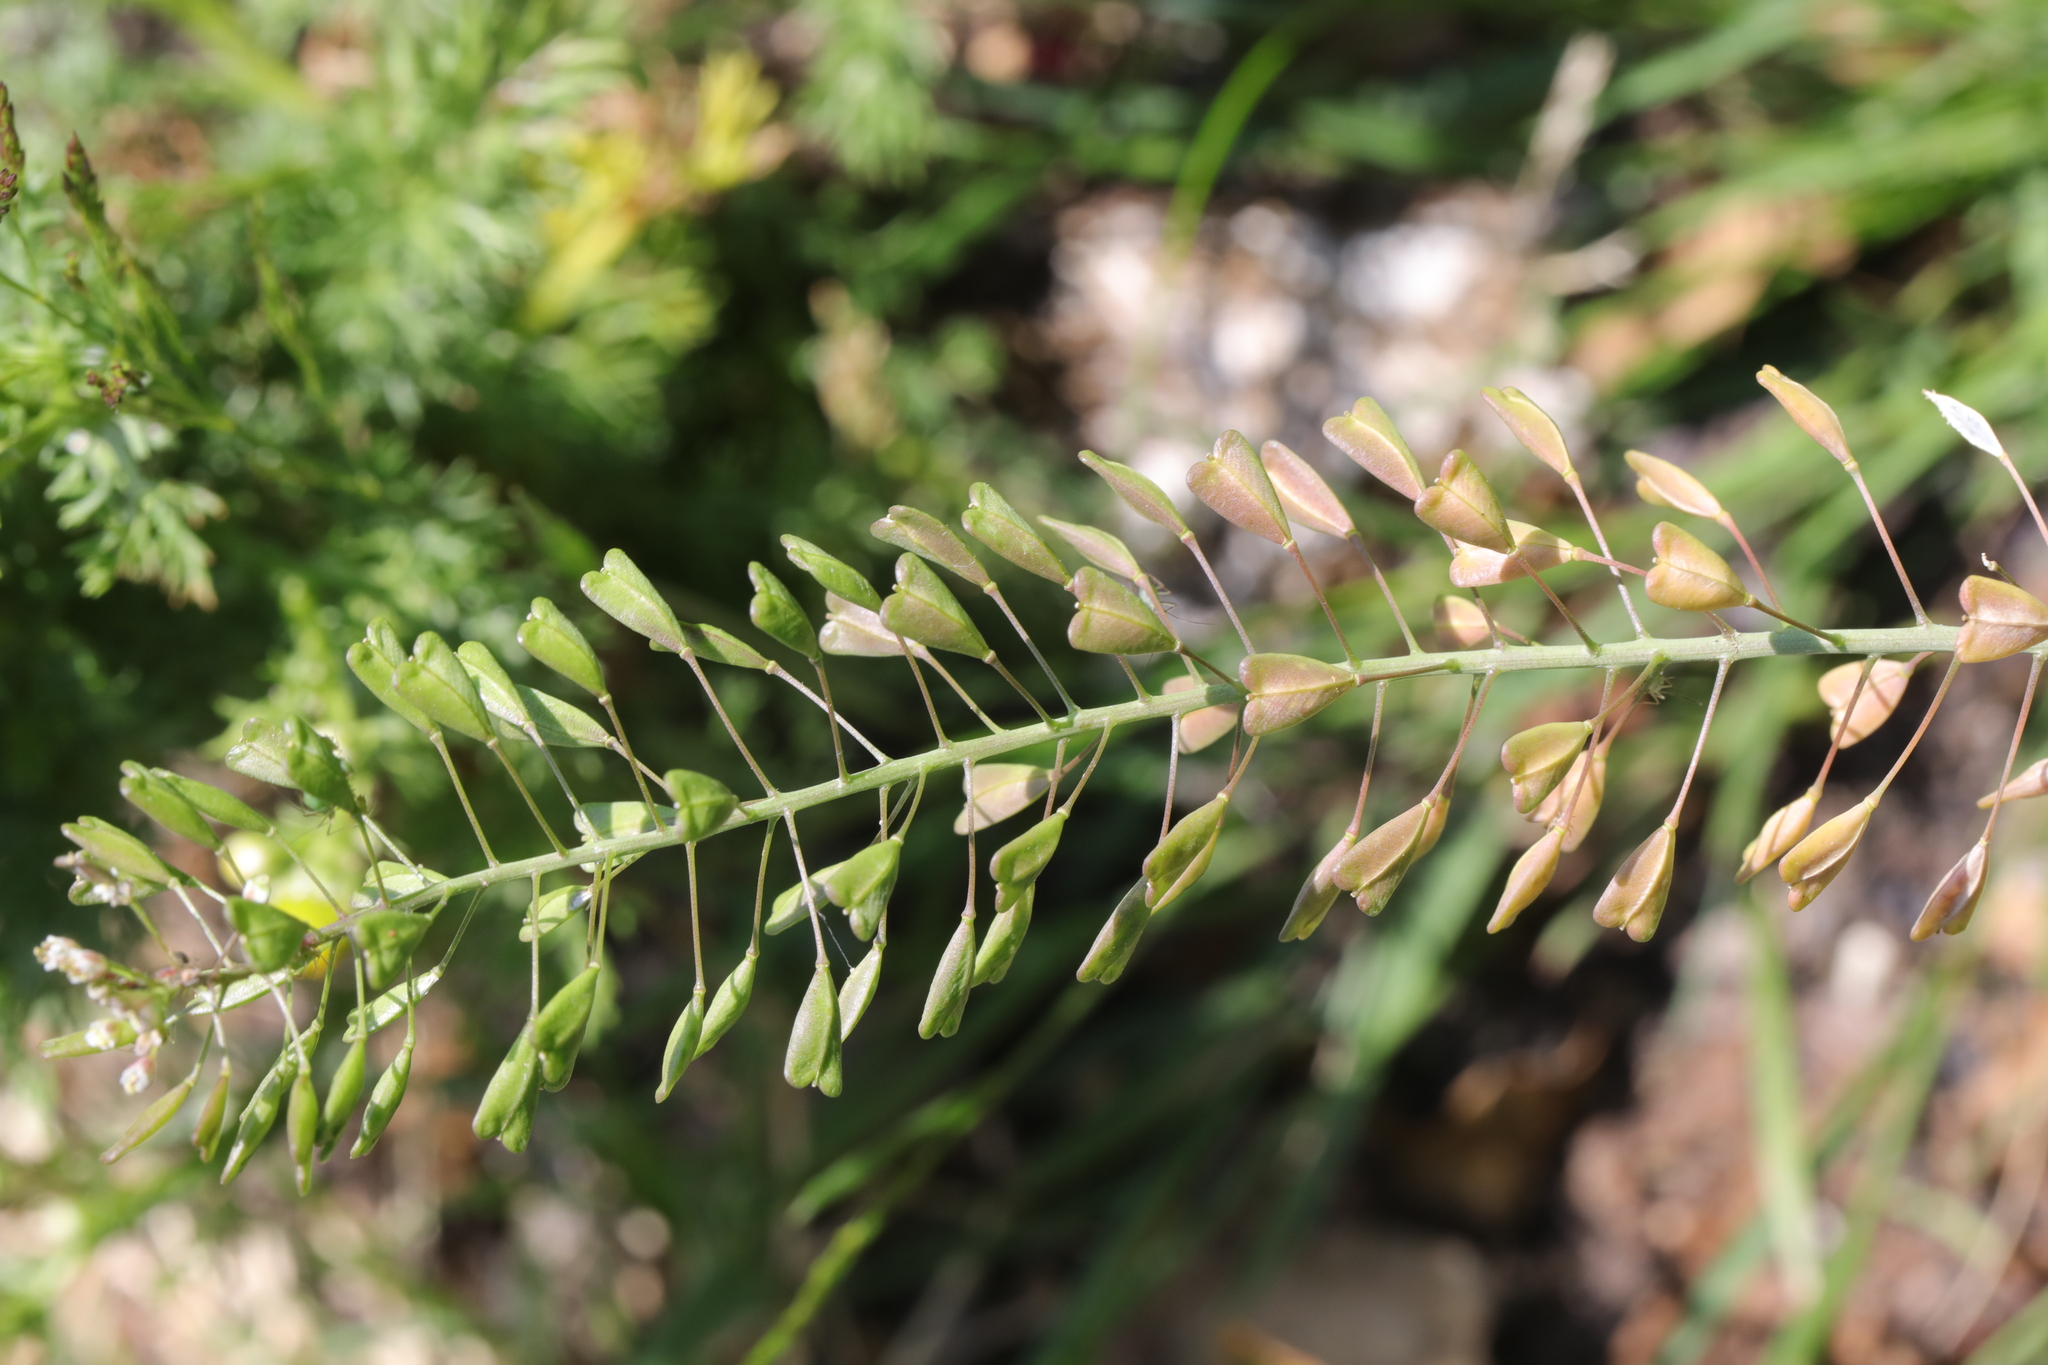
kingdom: Plantae
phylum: Tracheophyta
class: Magnoliopsida
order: Brassicales
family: Brassicaceae
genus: Capsella
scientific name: Capsella bursa-pastoris
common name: Shepherd's purse
